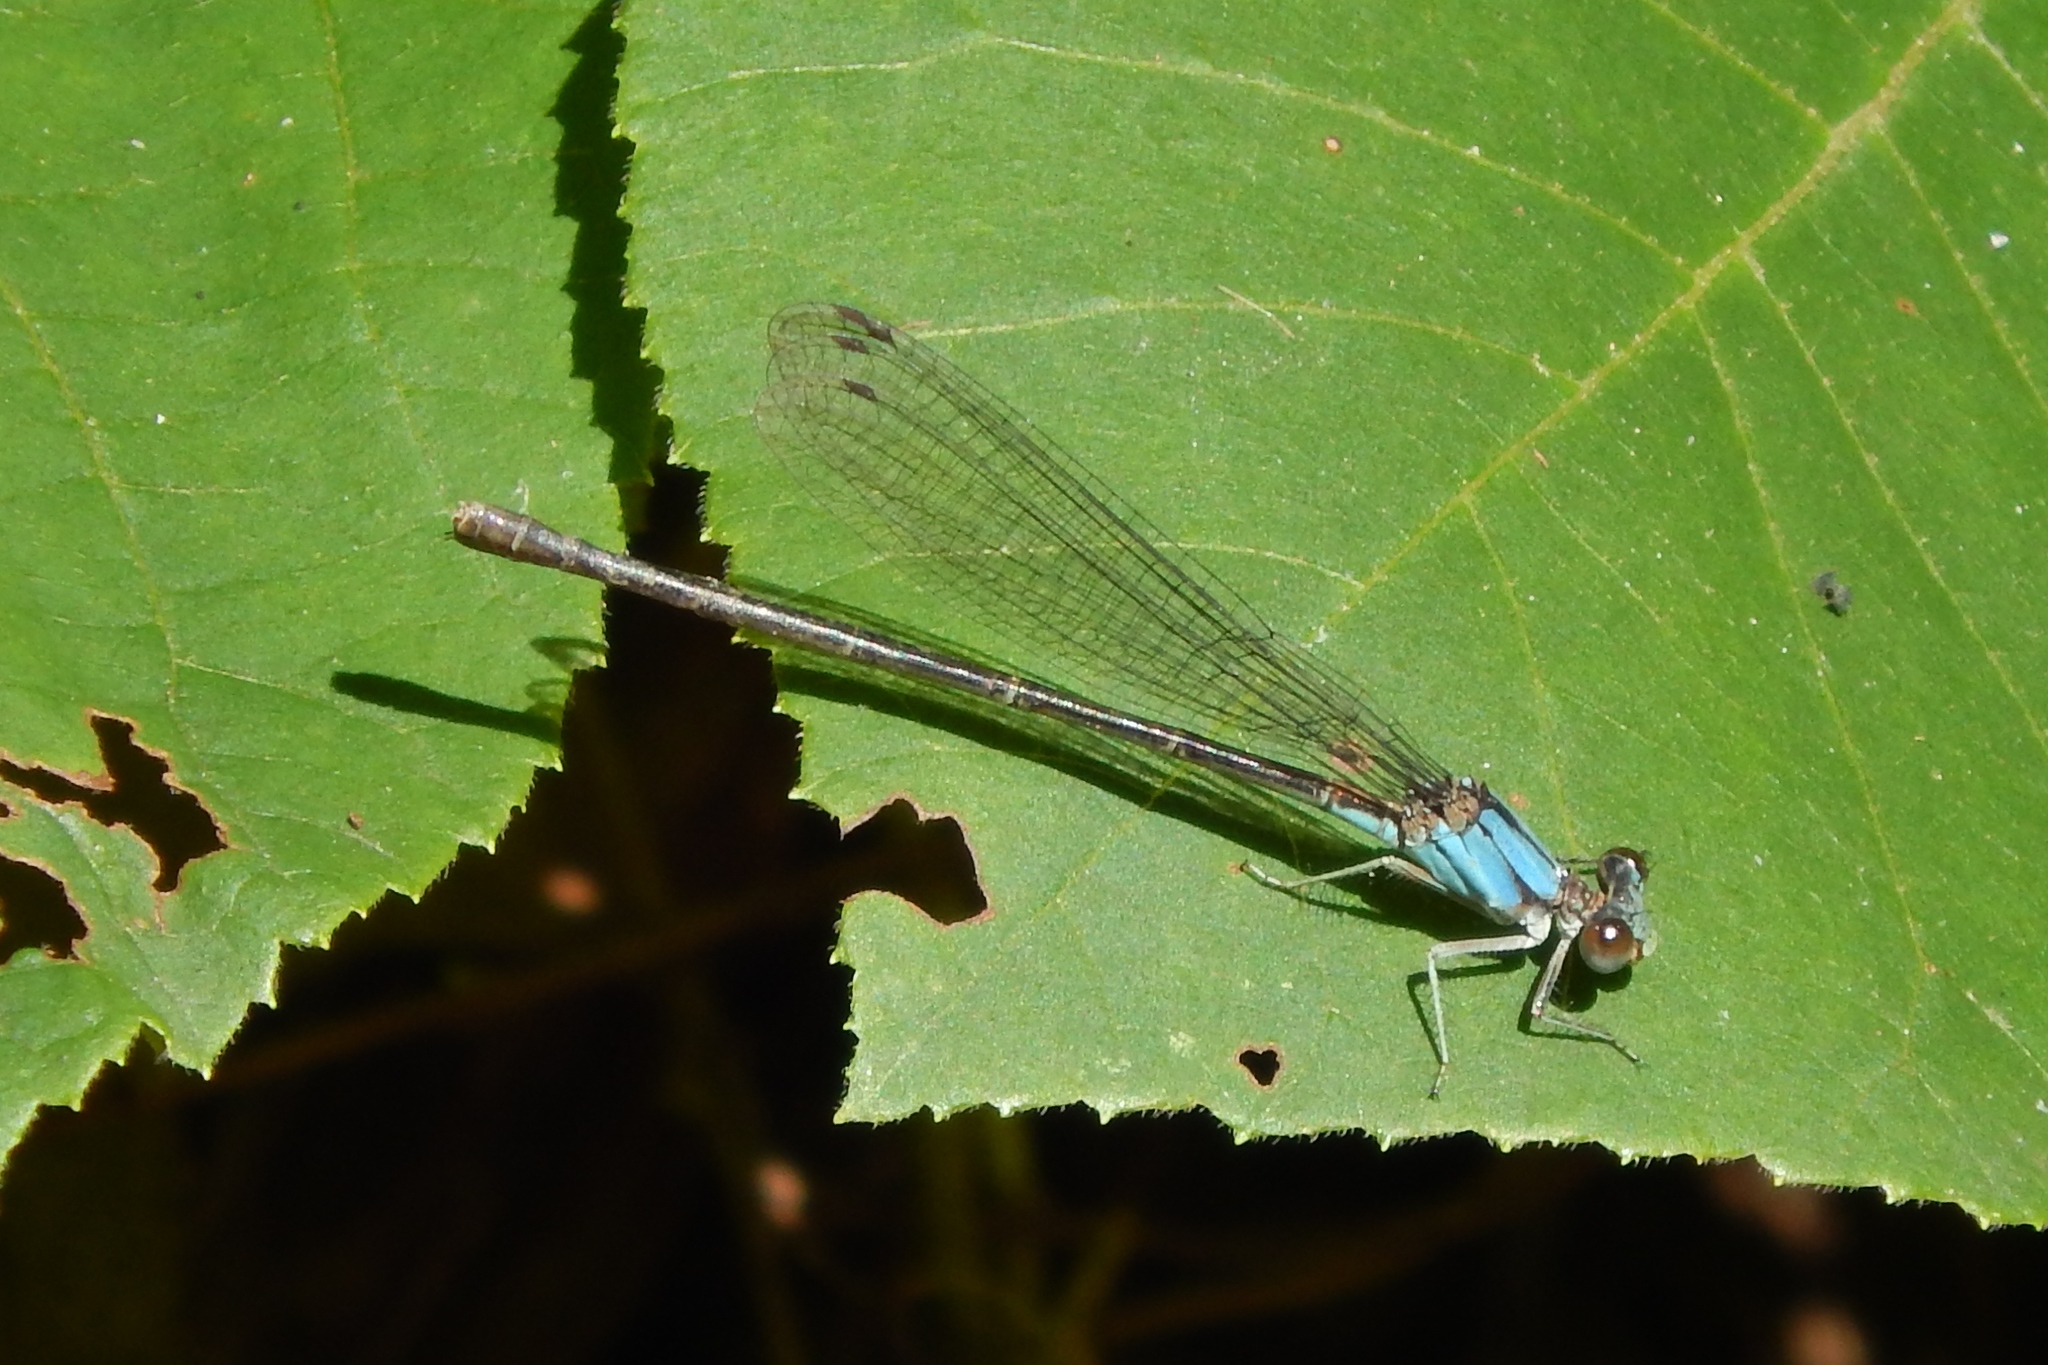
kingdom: Animalia
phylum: Arthropoda
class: Insecta
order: Odonata
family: Coenagrionidae
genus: Argia
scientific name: Argia apicalis
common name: Blue-fronted dancer
